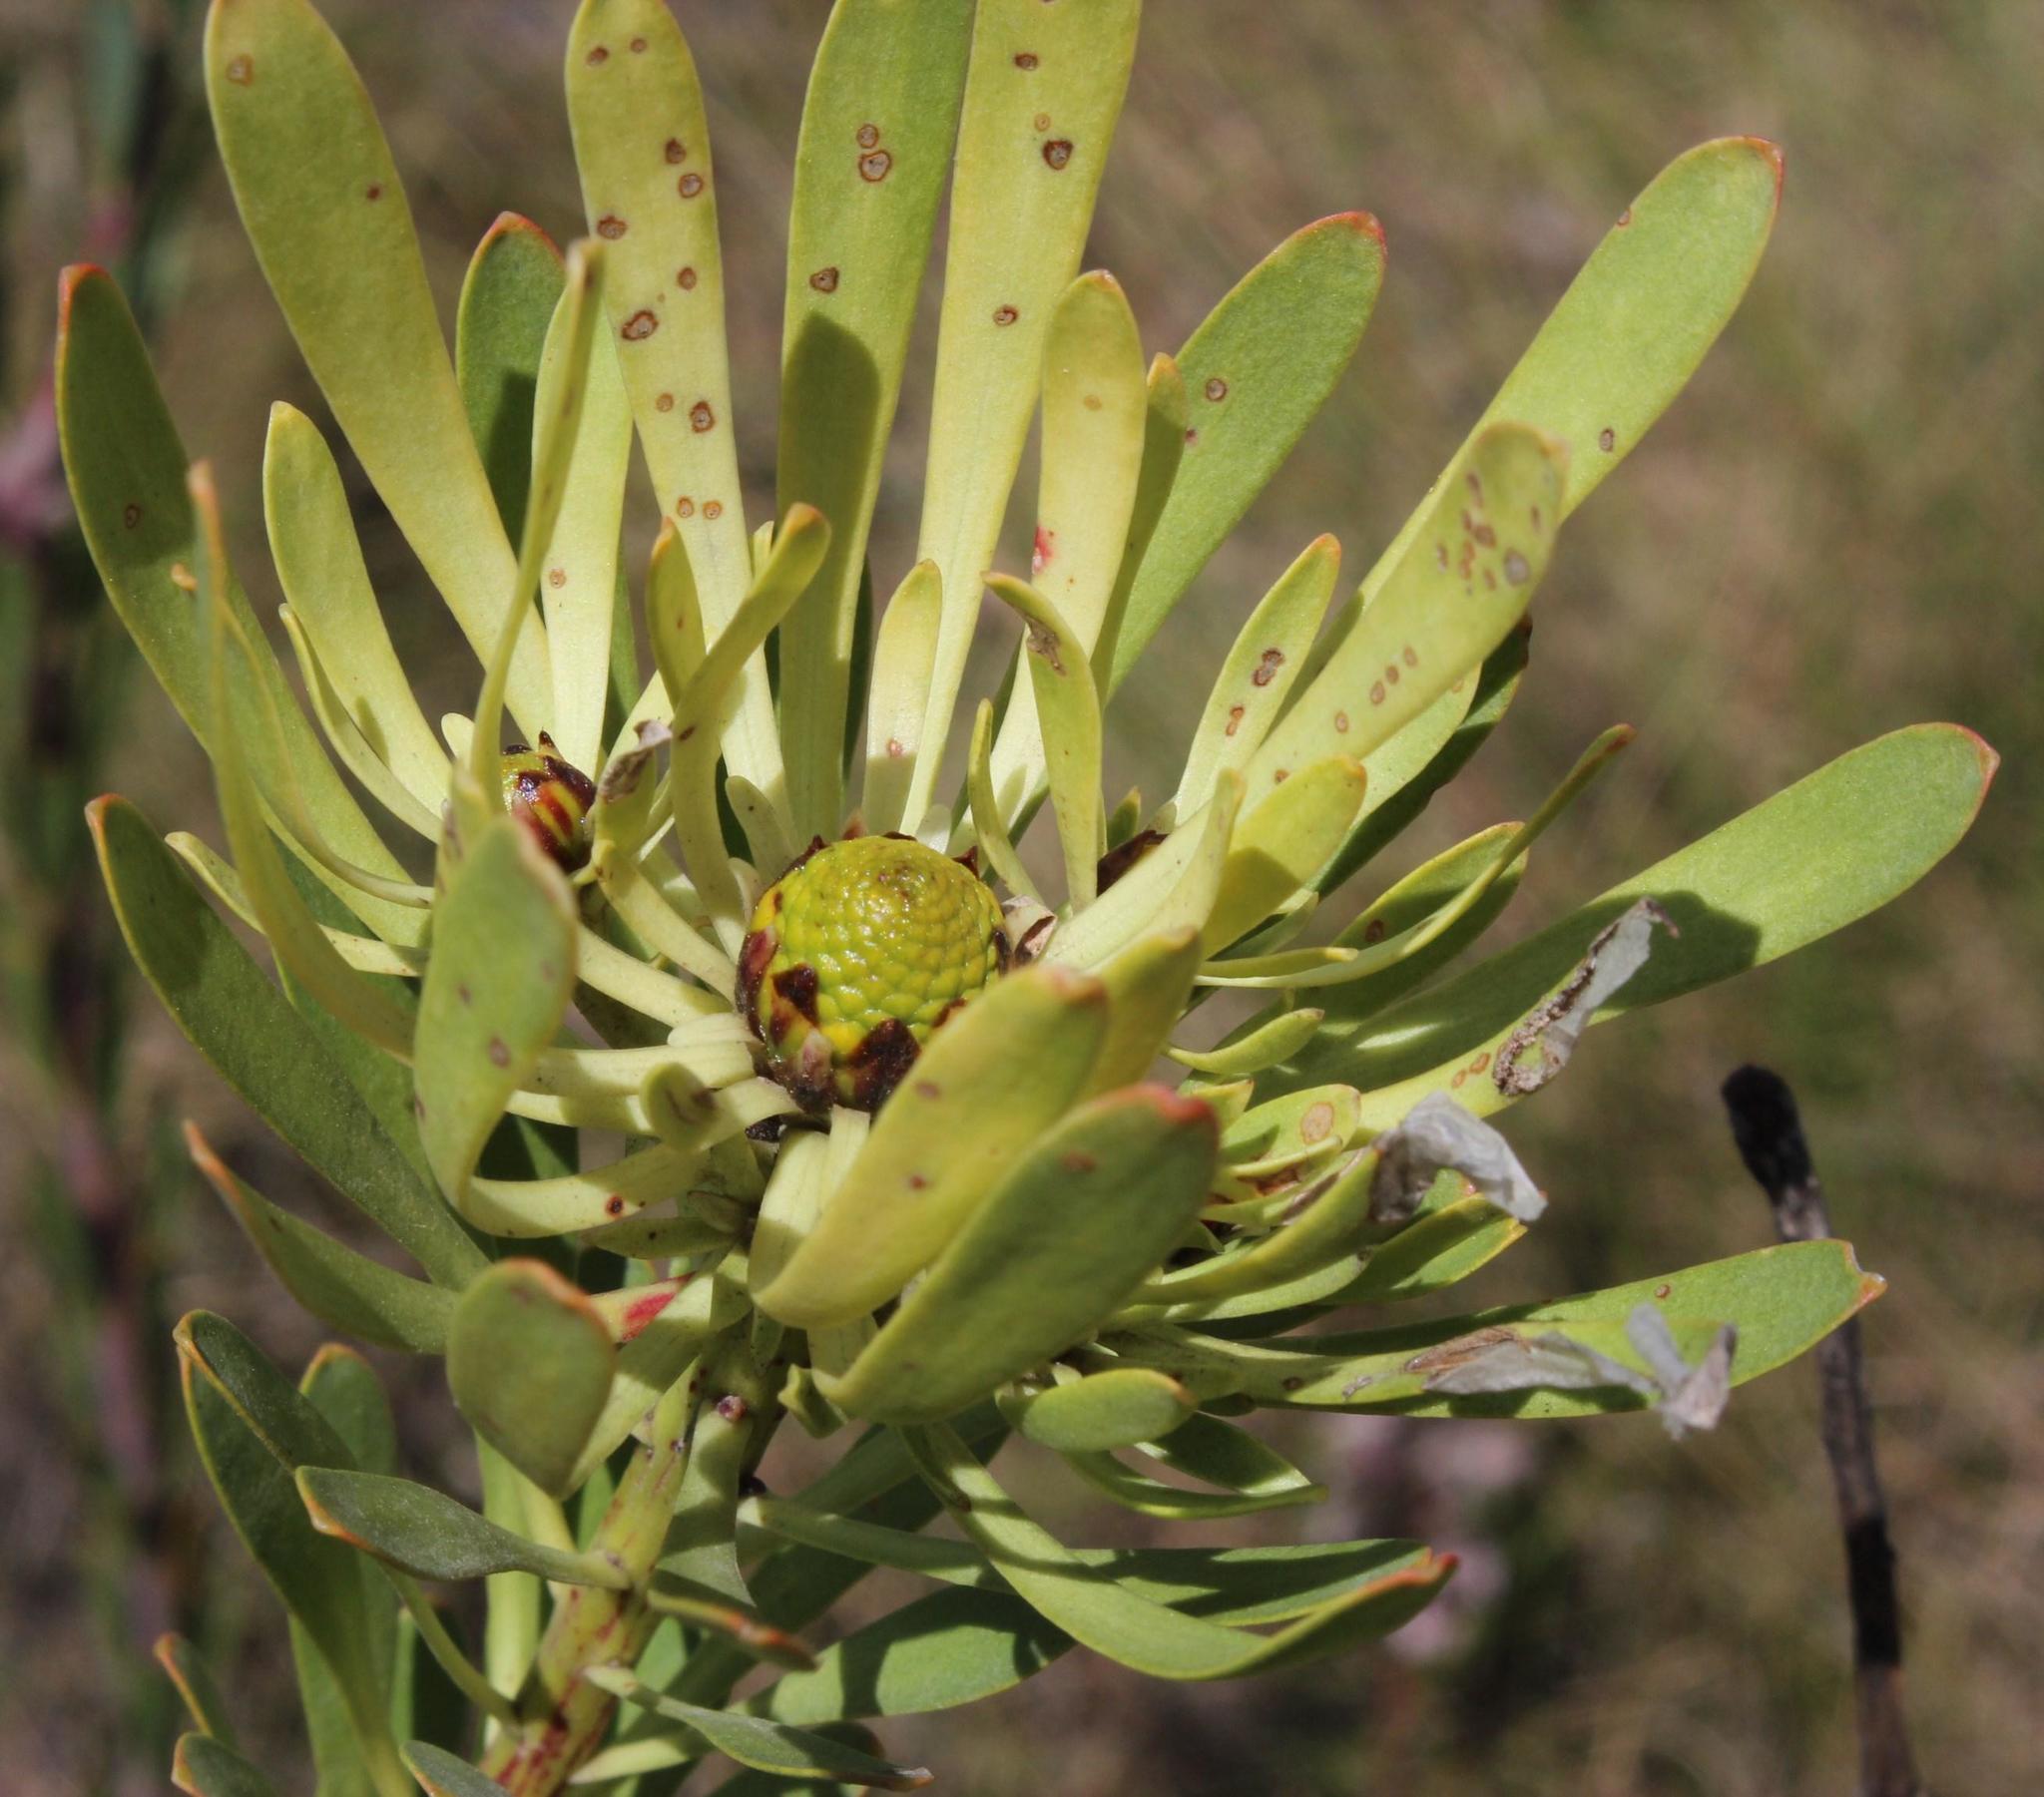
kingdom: Plantae
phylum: Tracheophyta
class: Magnoliopsida
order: Proteales
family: Proteaceae
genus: Leucadendron
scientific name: Leucadendron chamelaea
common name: Witsenberg conebush
